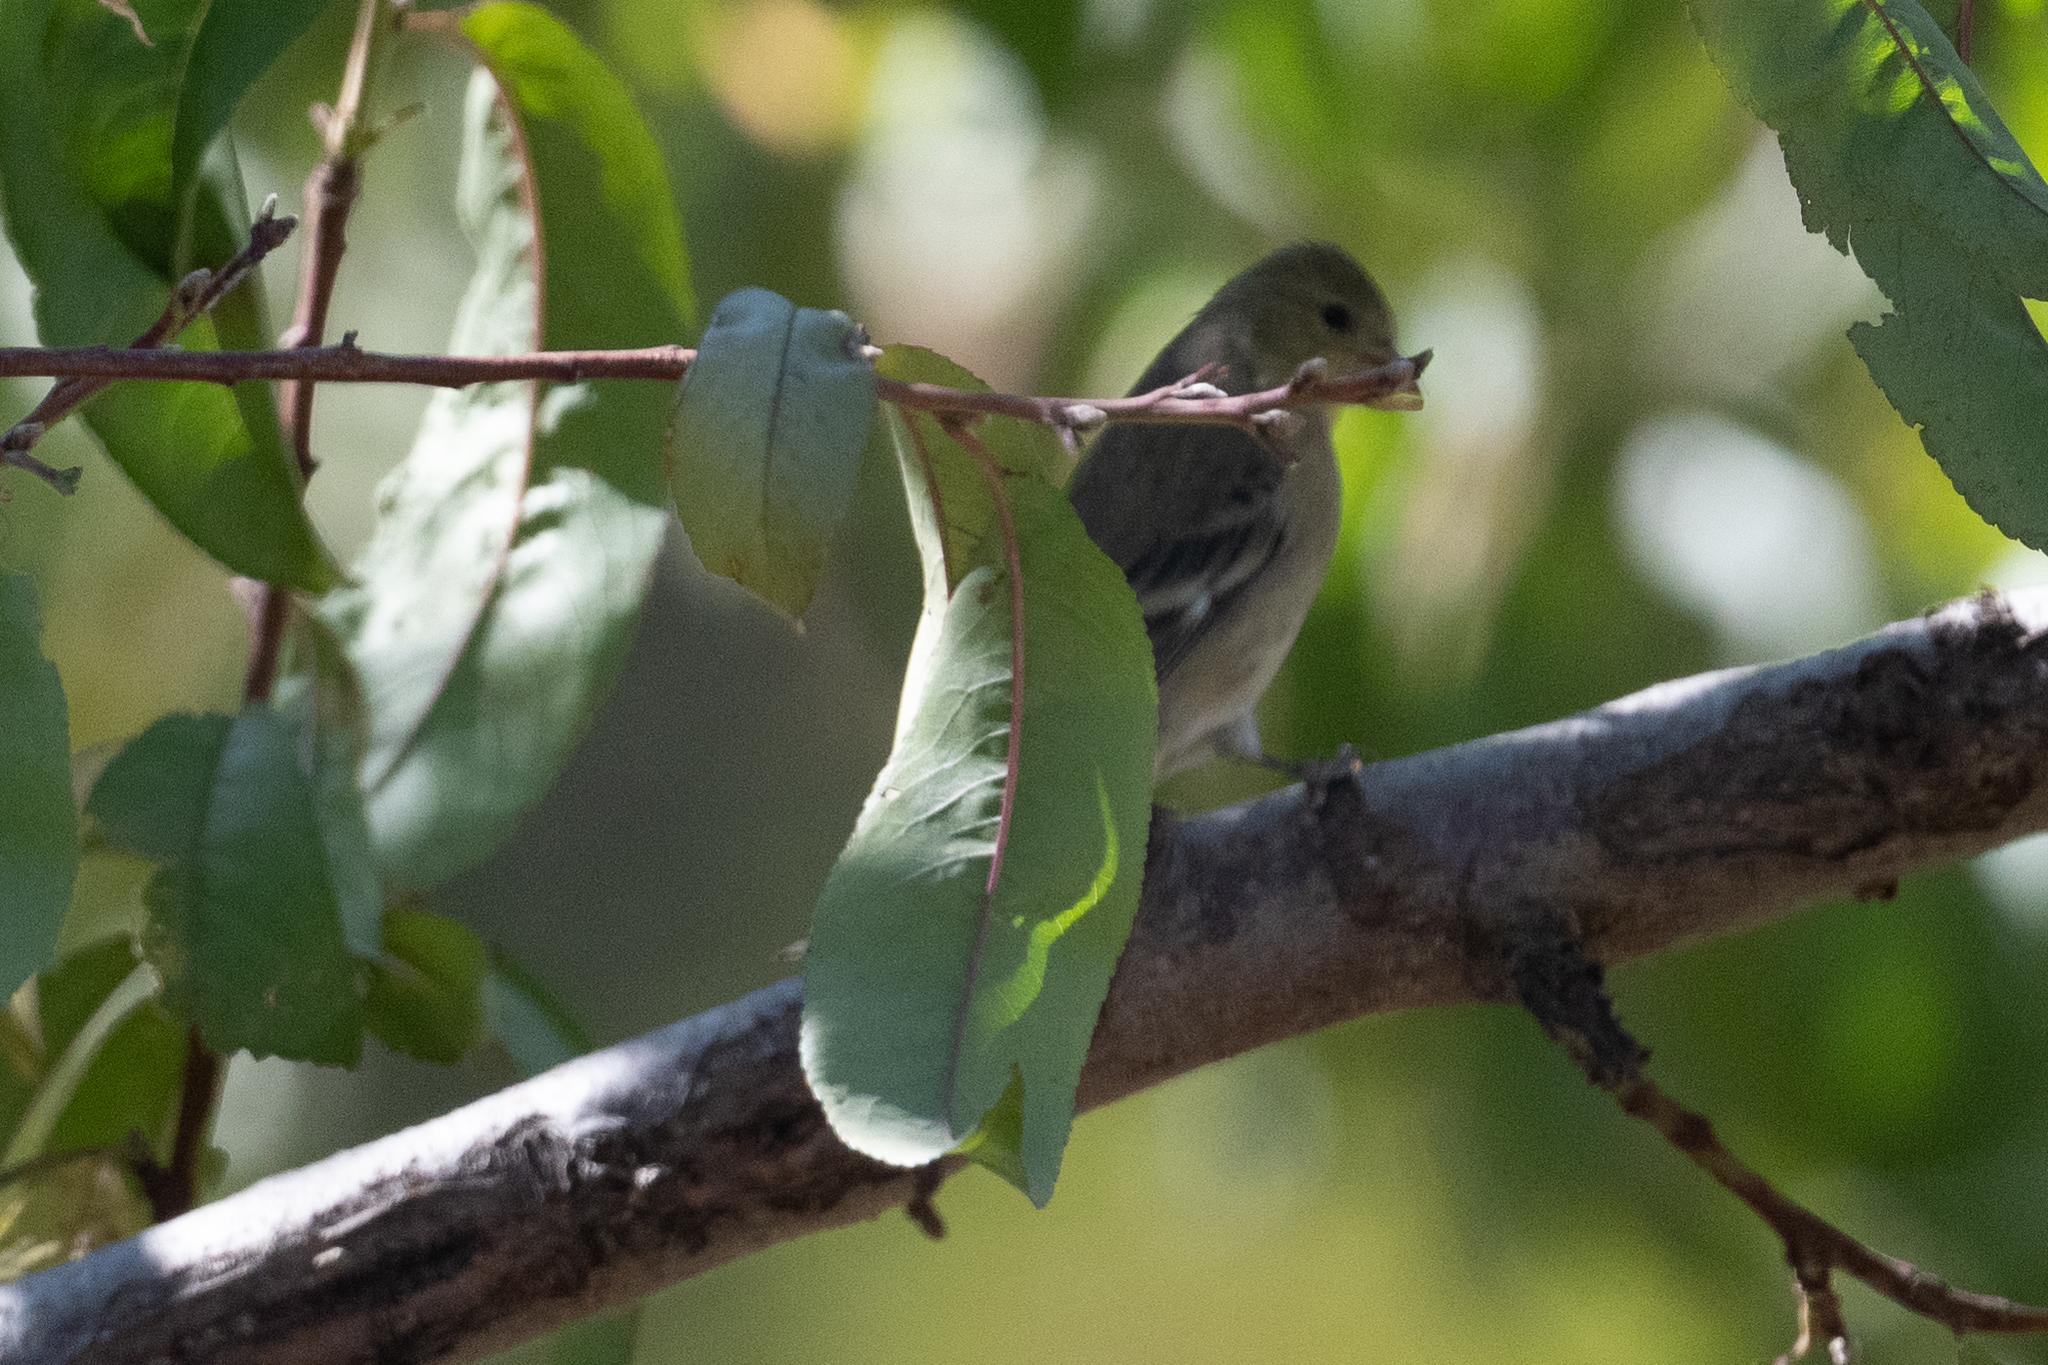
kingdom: Animalia
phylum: Chordata
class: Aves
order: Passeriformes
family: Fringillidae
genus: Spinus
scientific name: Spinus psaltria
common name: Lesser goldfinch
